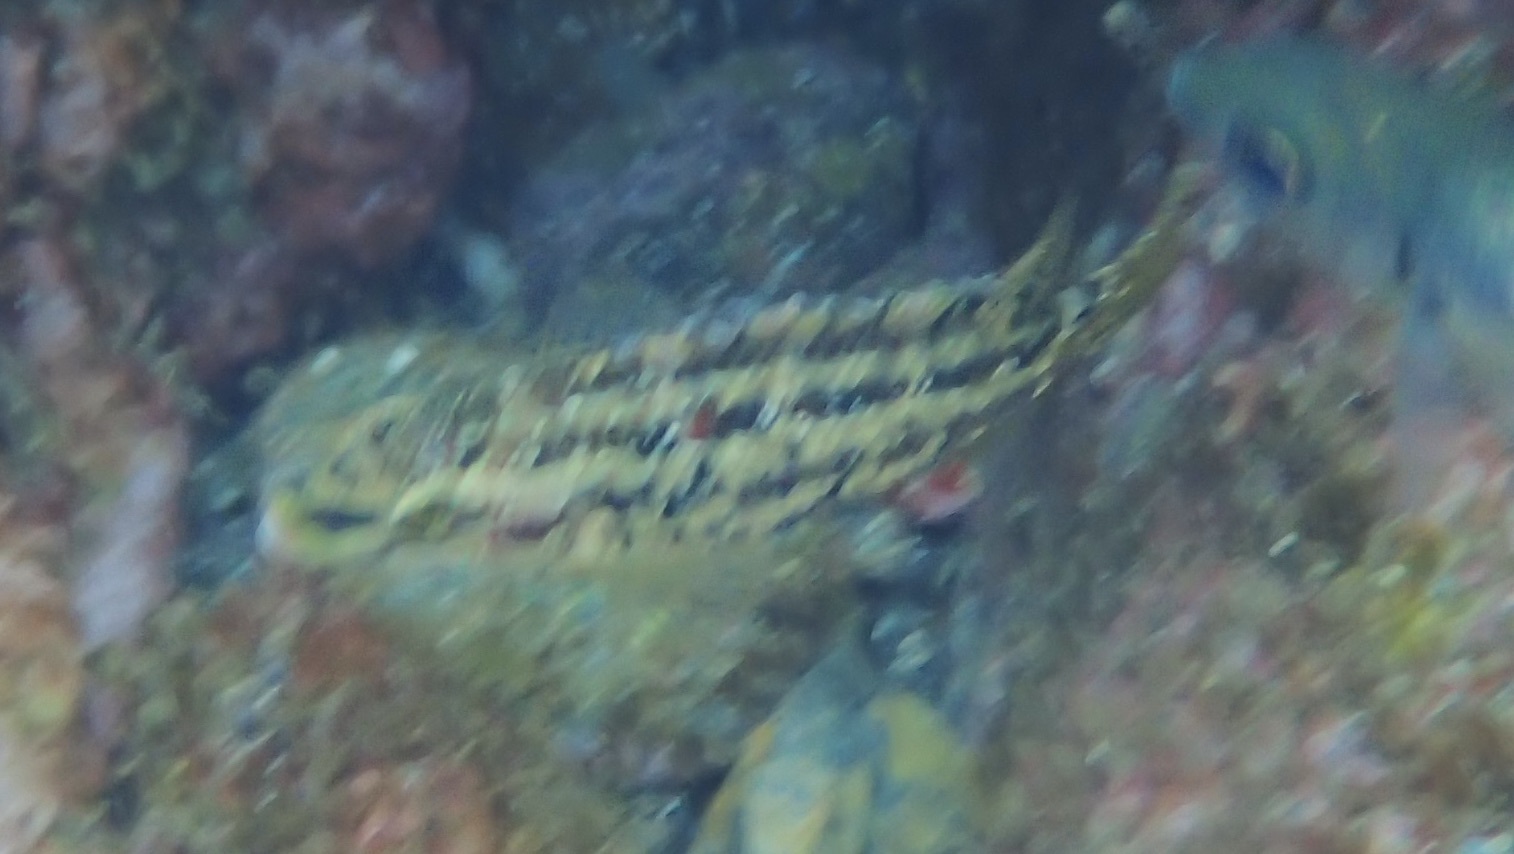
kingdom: Animalia
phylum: Chordata
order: Perciformes
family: Labridae
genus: Symphodus
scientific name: Symphodus roissali
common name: Five-spotted wrasse
